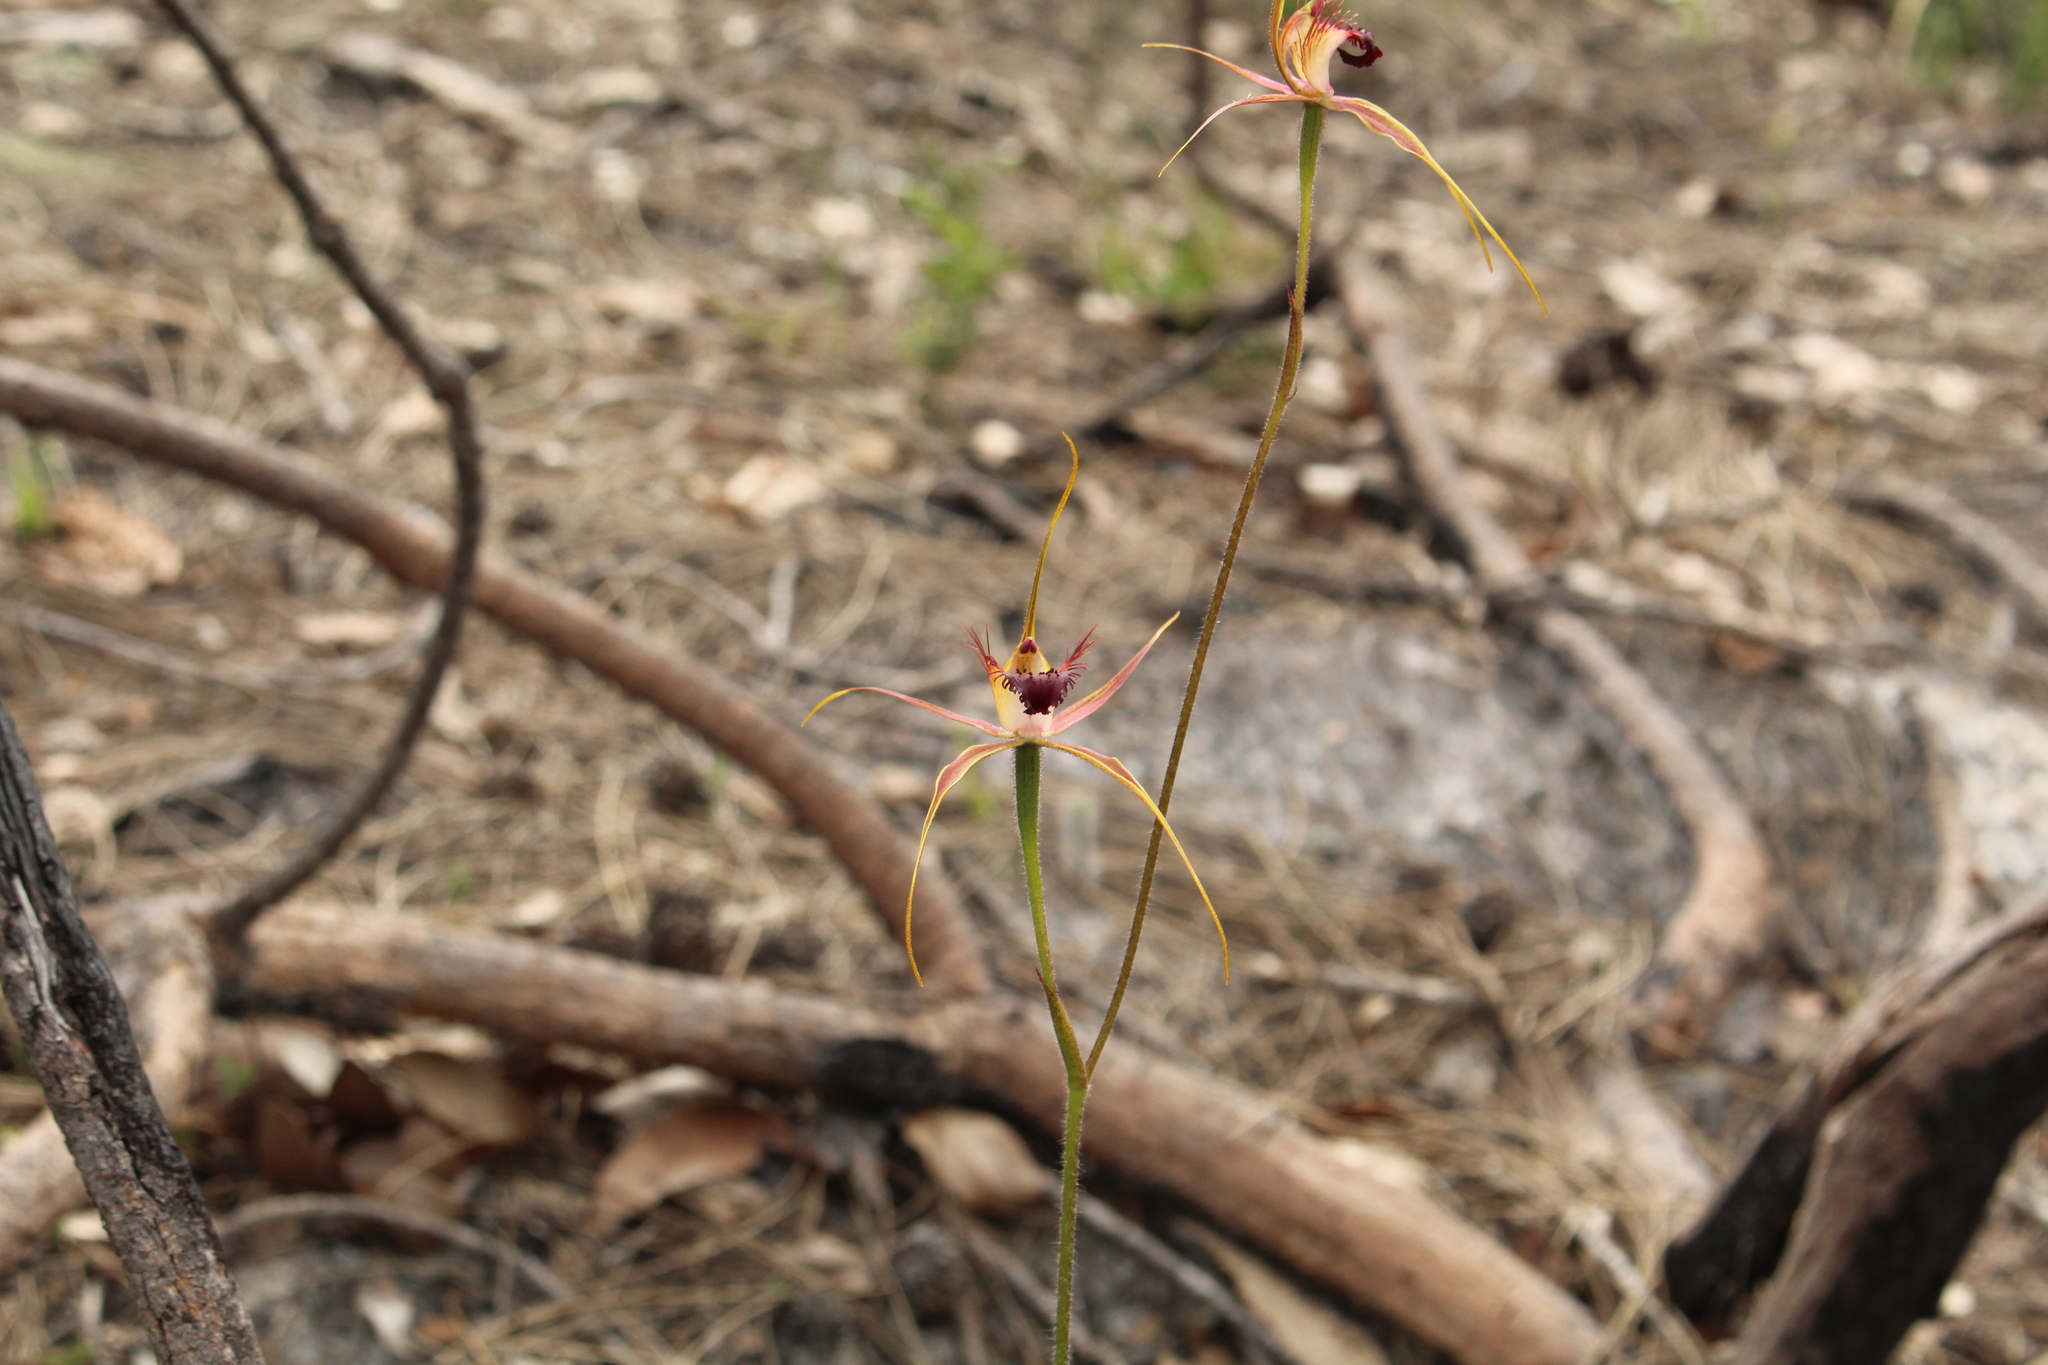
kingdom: Plantae
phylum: Tracheophyta
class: Liliopsida
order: Asparagales
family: Orchidaceae
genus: Caladenia
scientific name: Caladenia brownii
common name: Kari spider orchid
